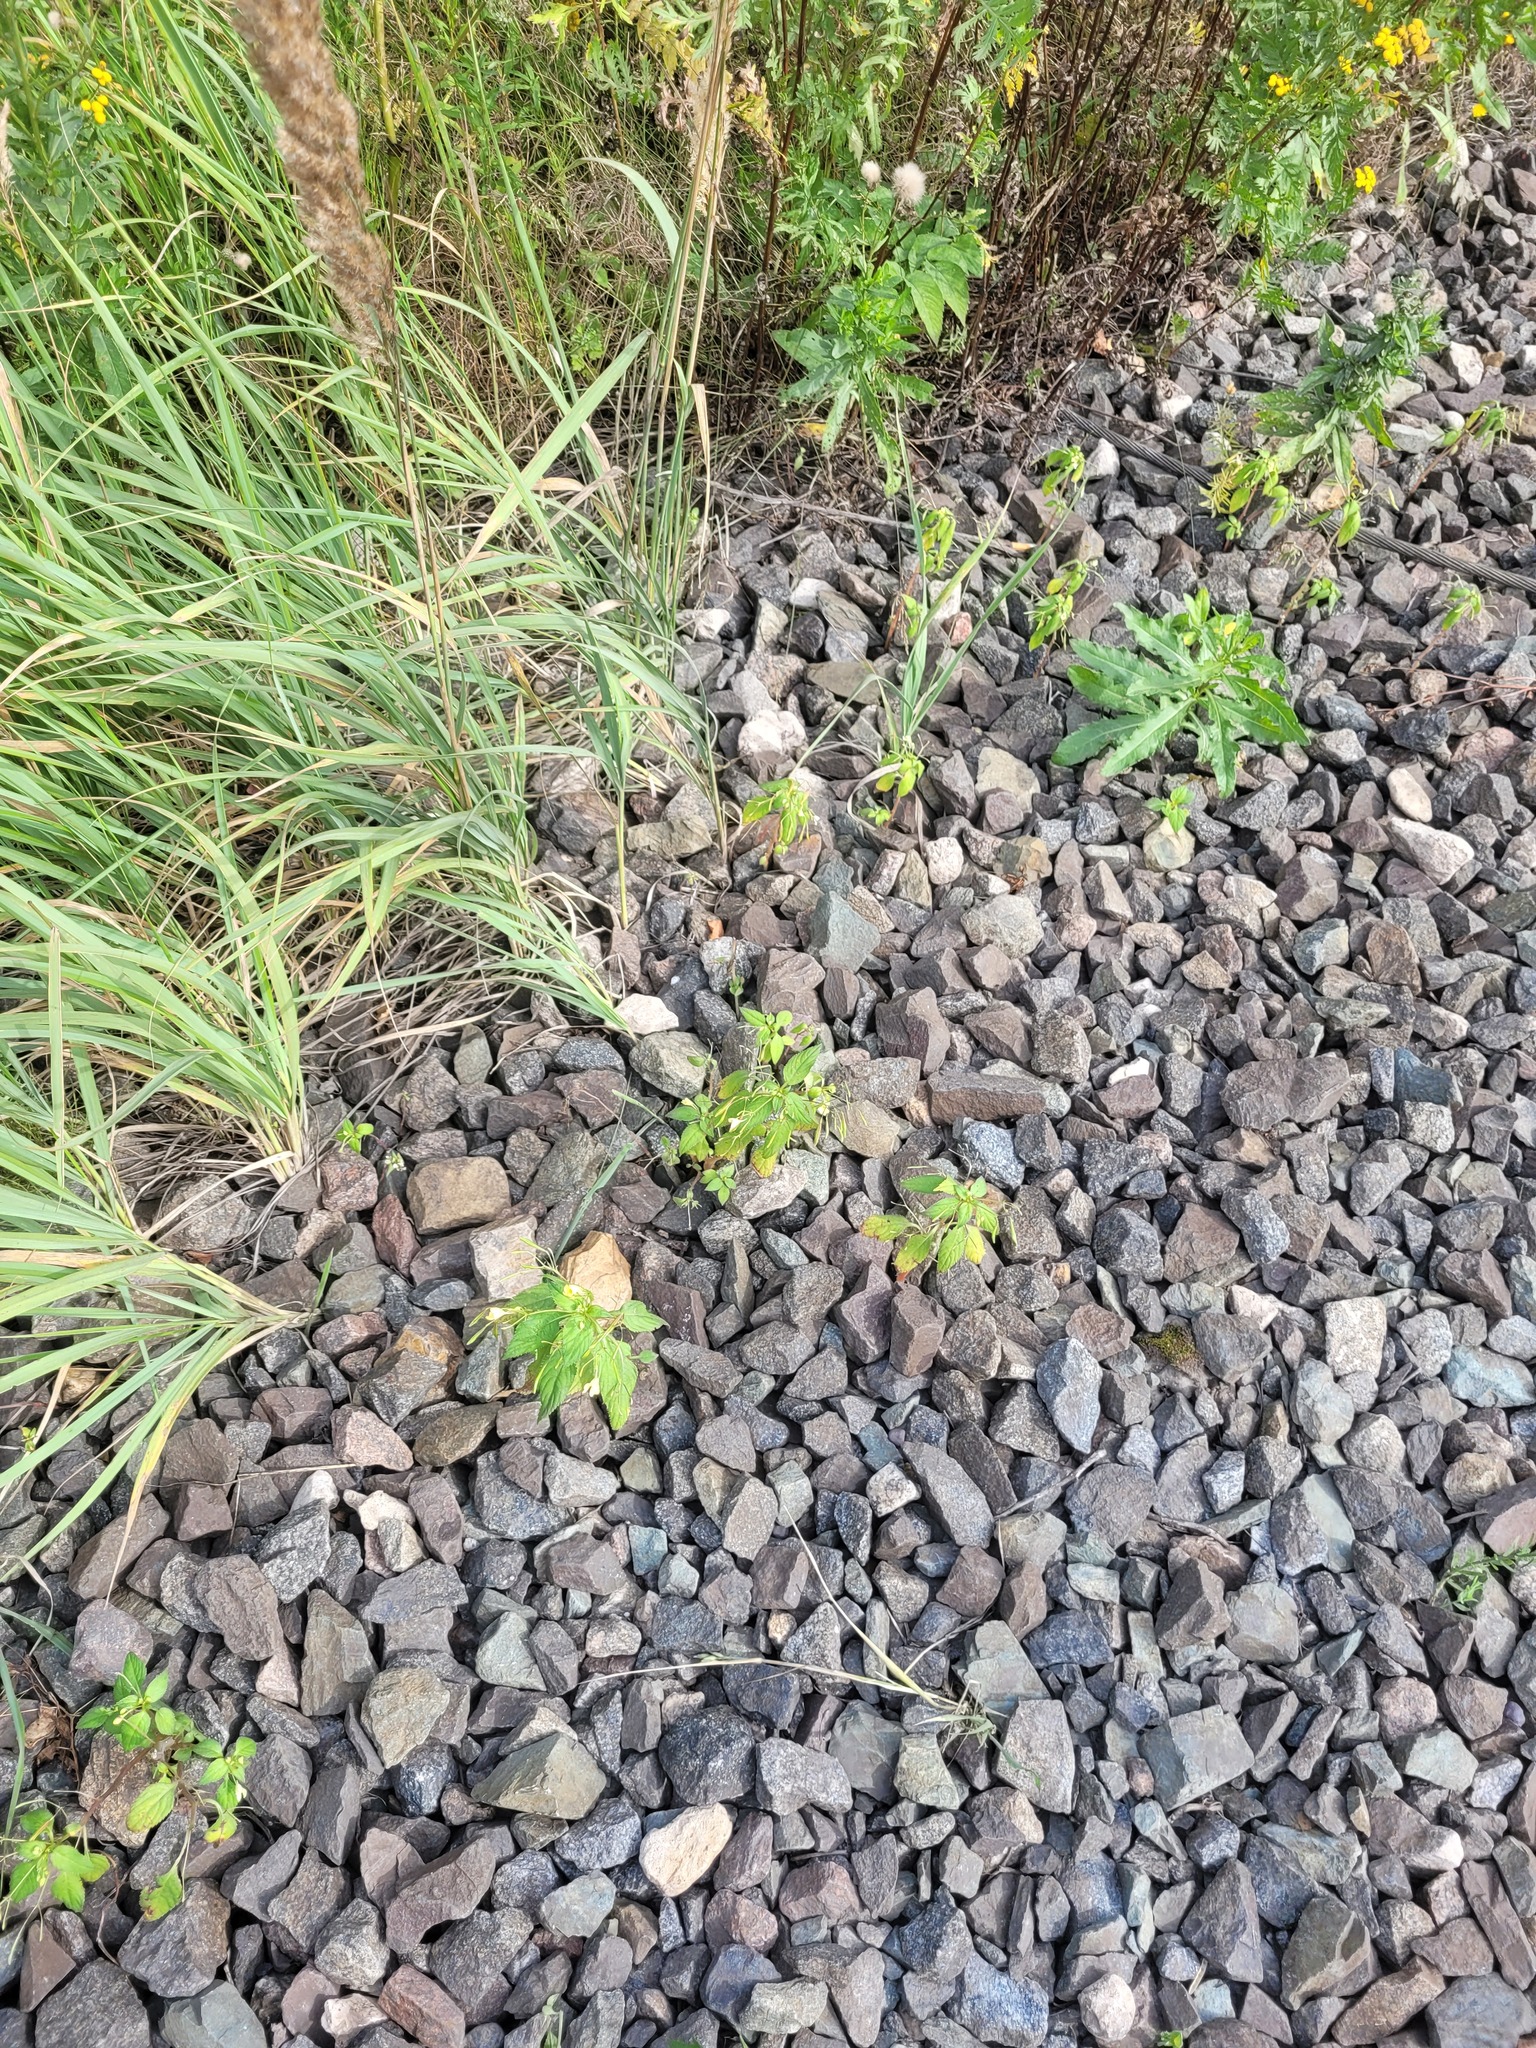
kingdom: Plantae
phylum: Tracheophyta
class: Magnoliopsida
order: Ericales
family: Balsaminaceae
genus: Impatiens
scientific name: Impatiens parviflora
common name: Small balsam
